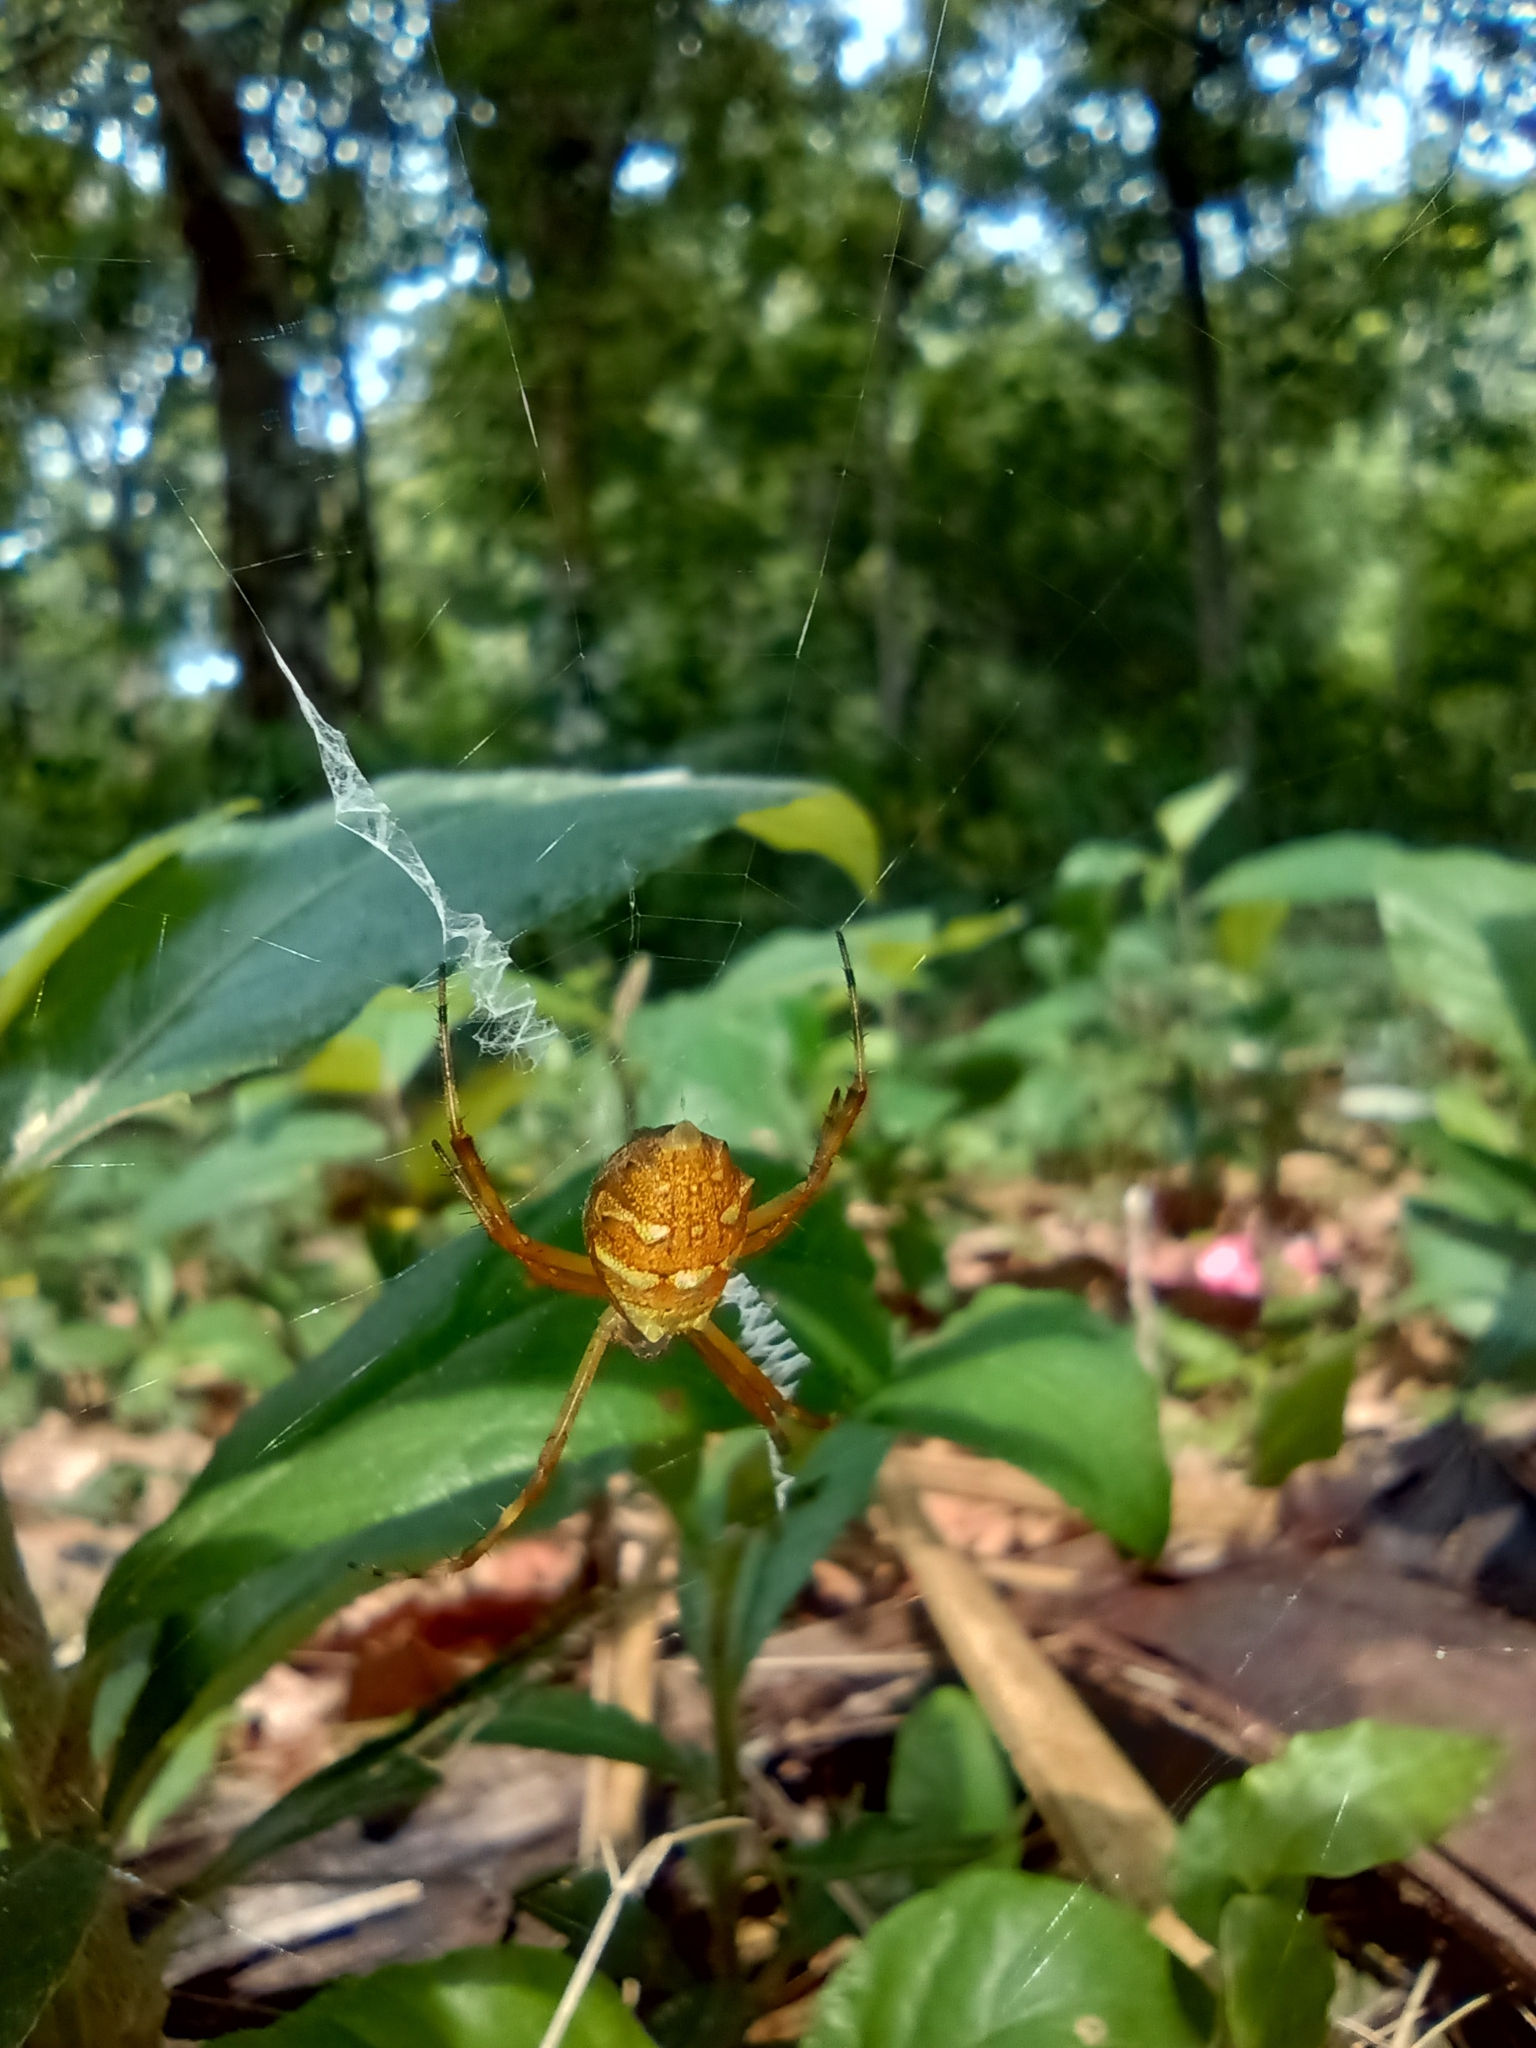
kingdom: Animalia
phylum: Arthropoda
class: Arachnida
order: Araneae
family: Araneidae
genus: Argiope
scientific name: Argiope argentata
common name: Orb weavers
